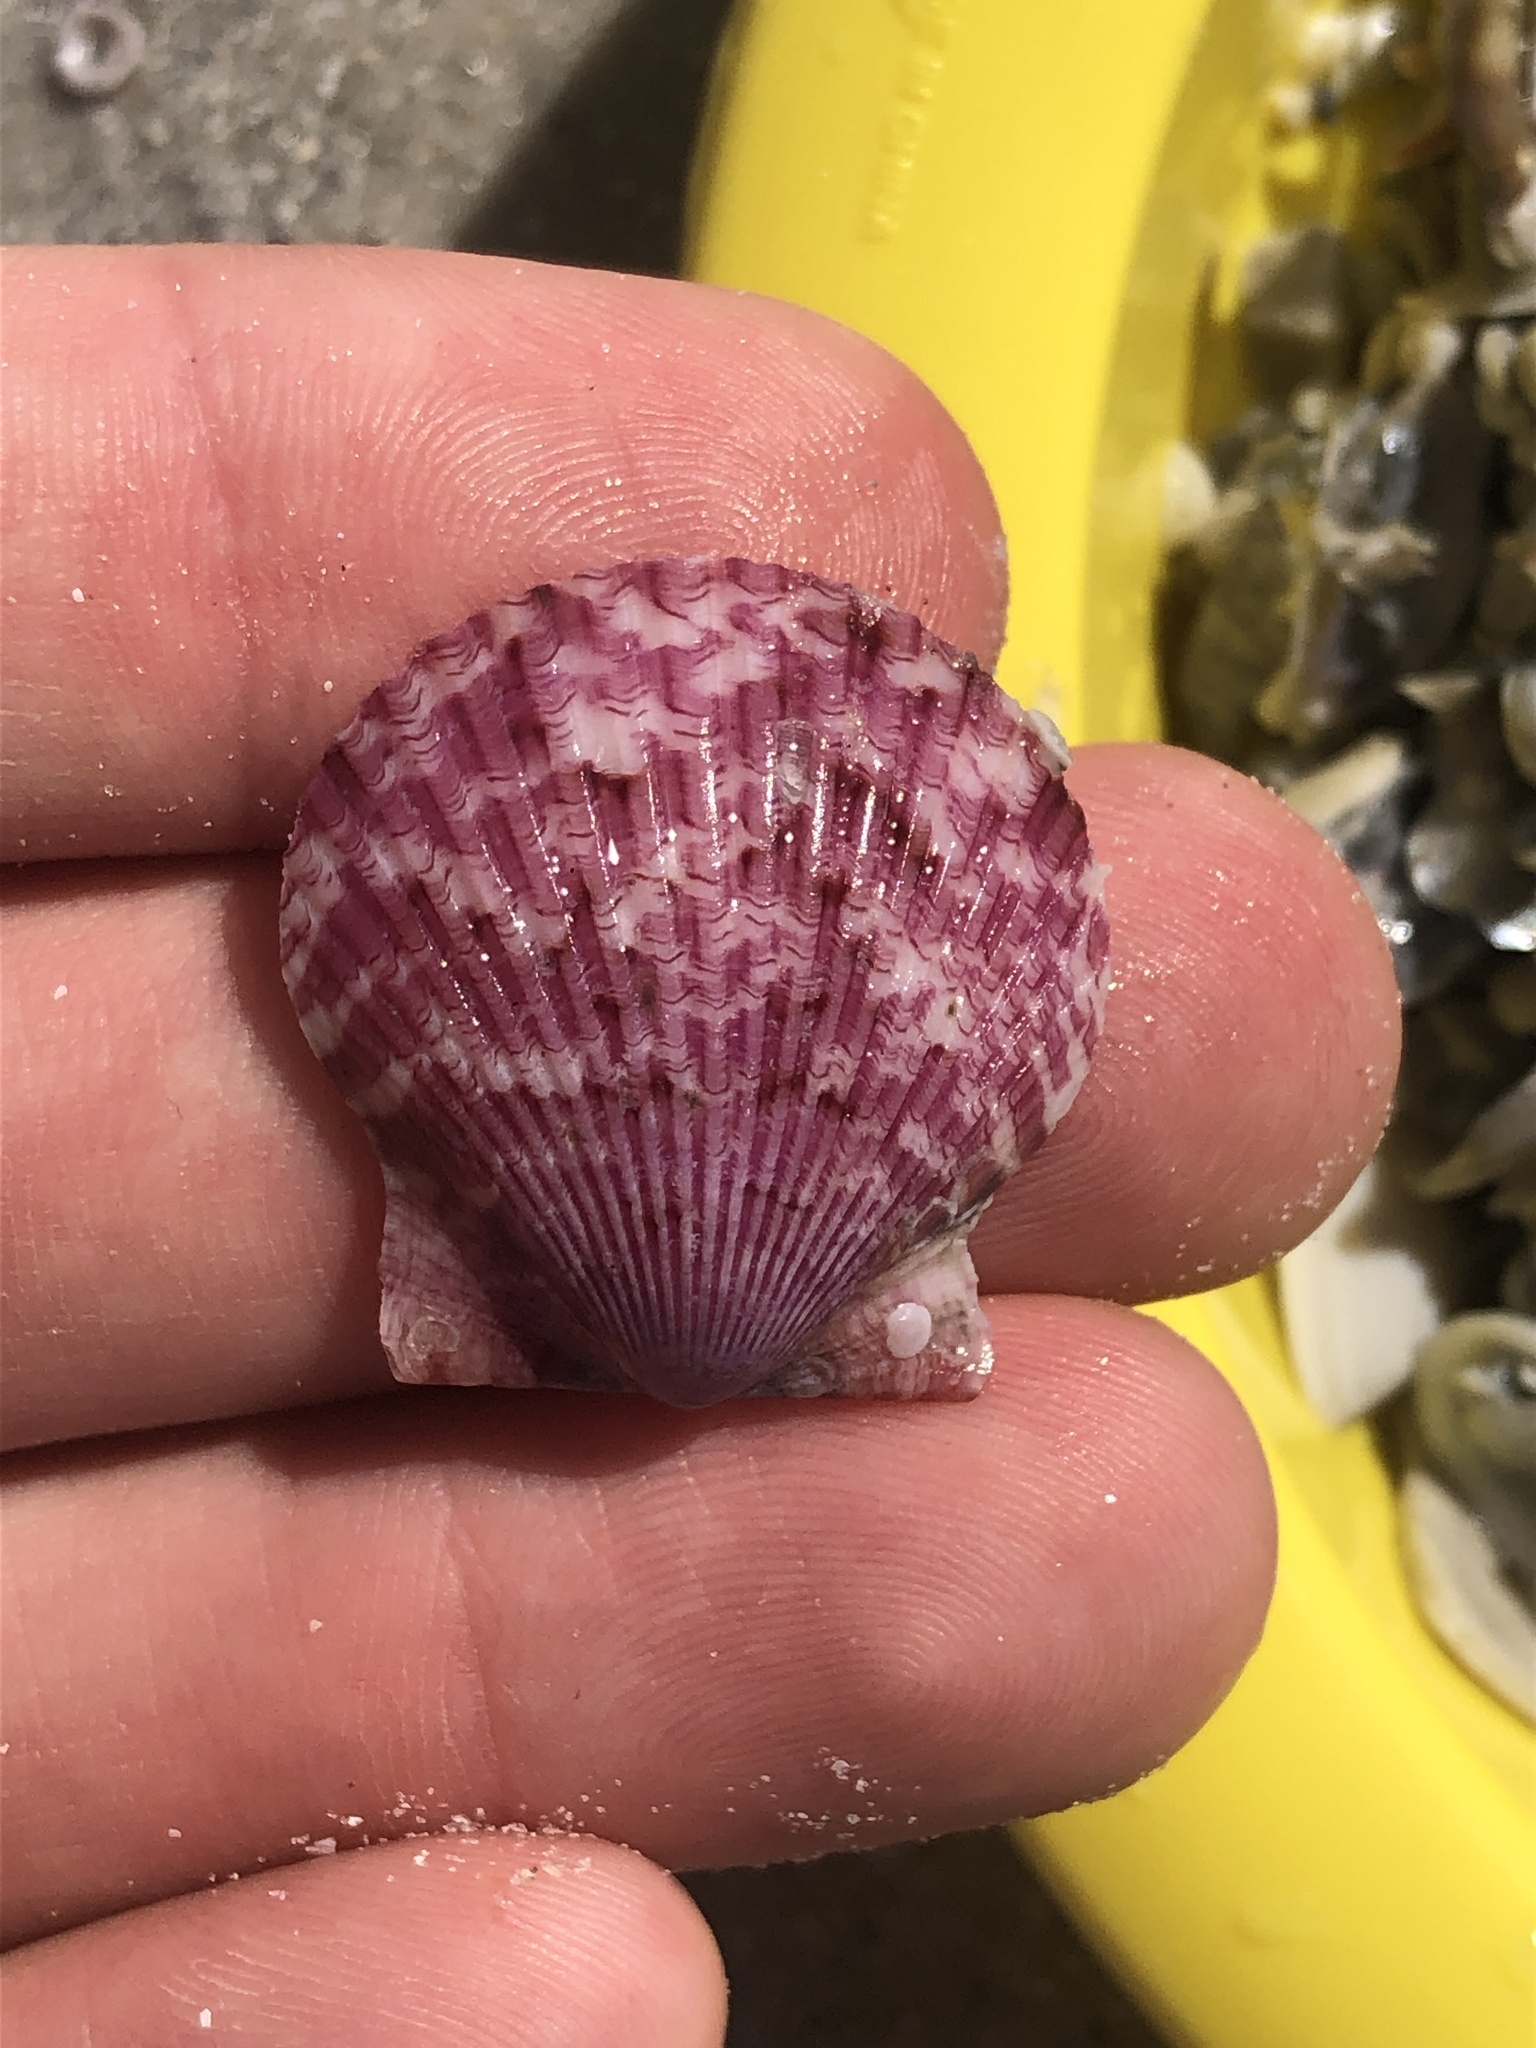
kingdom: Animalia
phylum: Mollusca
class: Bivalvia
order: Pectinida
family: Pectinidae
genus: Argopecten
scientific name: Argopecten gibbus
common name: Atlantic calico scallop
